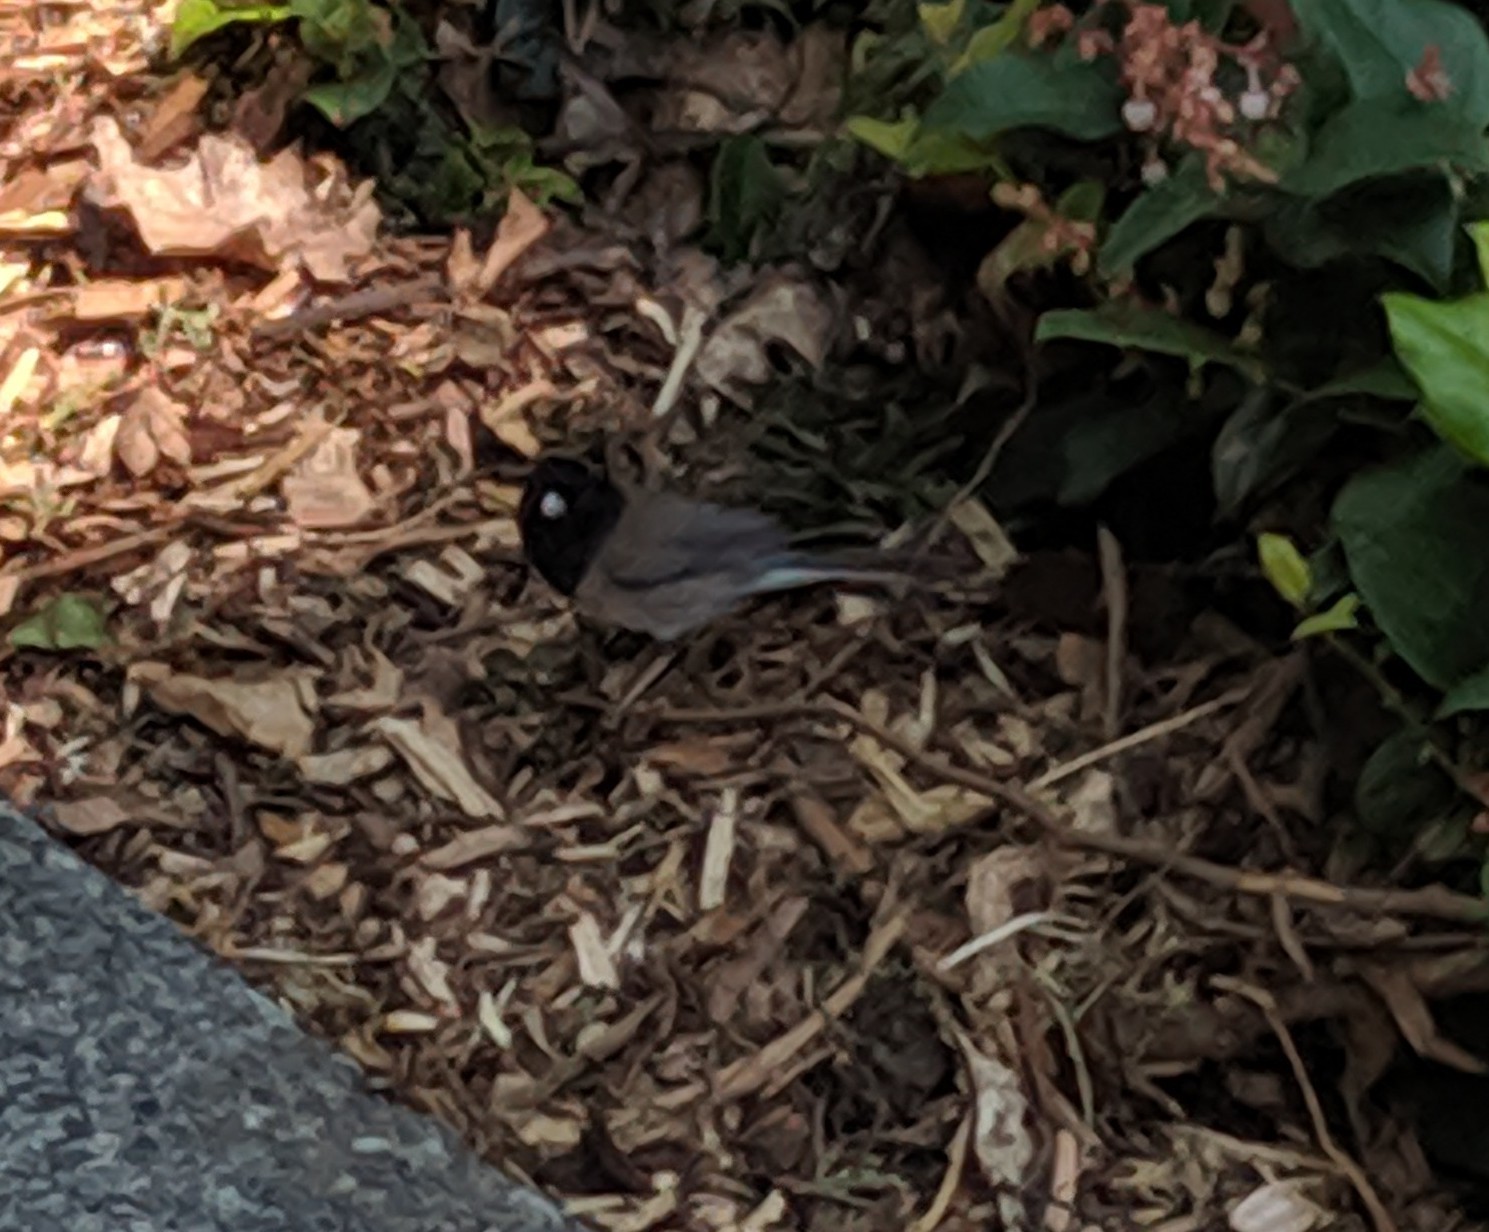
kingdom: Animalia
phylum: Chordata
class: Aves
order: Passeriformes
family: Passerellidae
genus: Junco
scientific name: Junco hyemalis
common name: Dark-eyed junco
